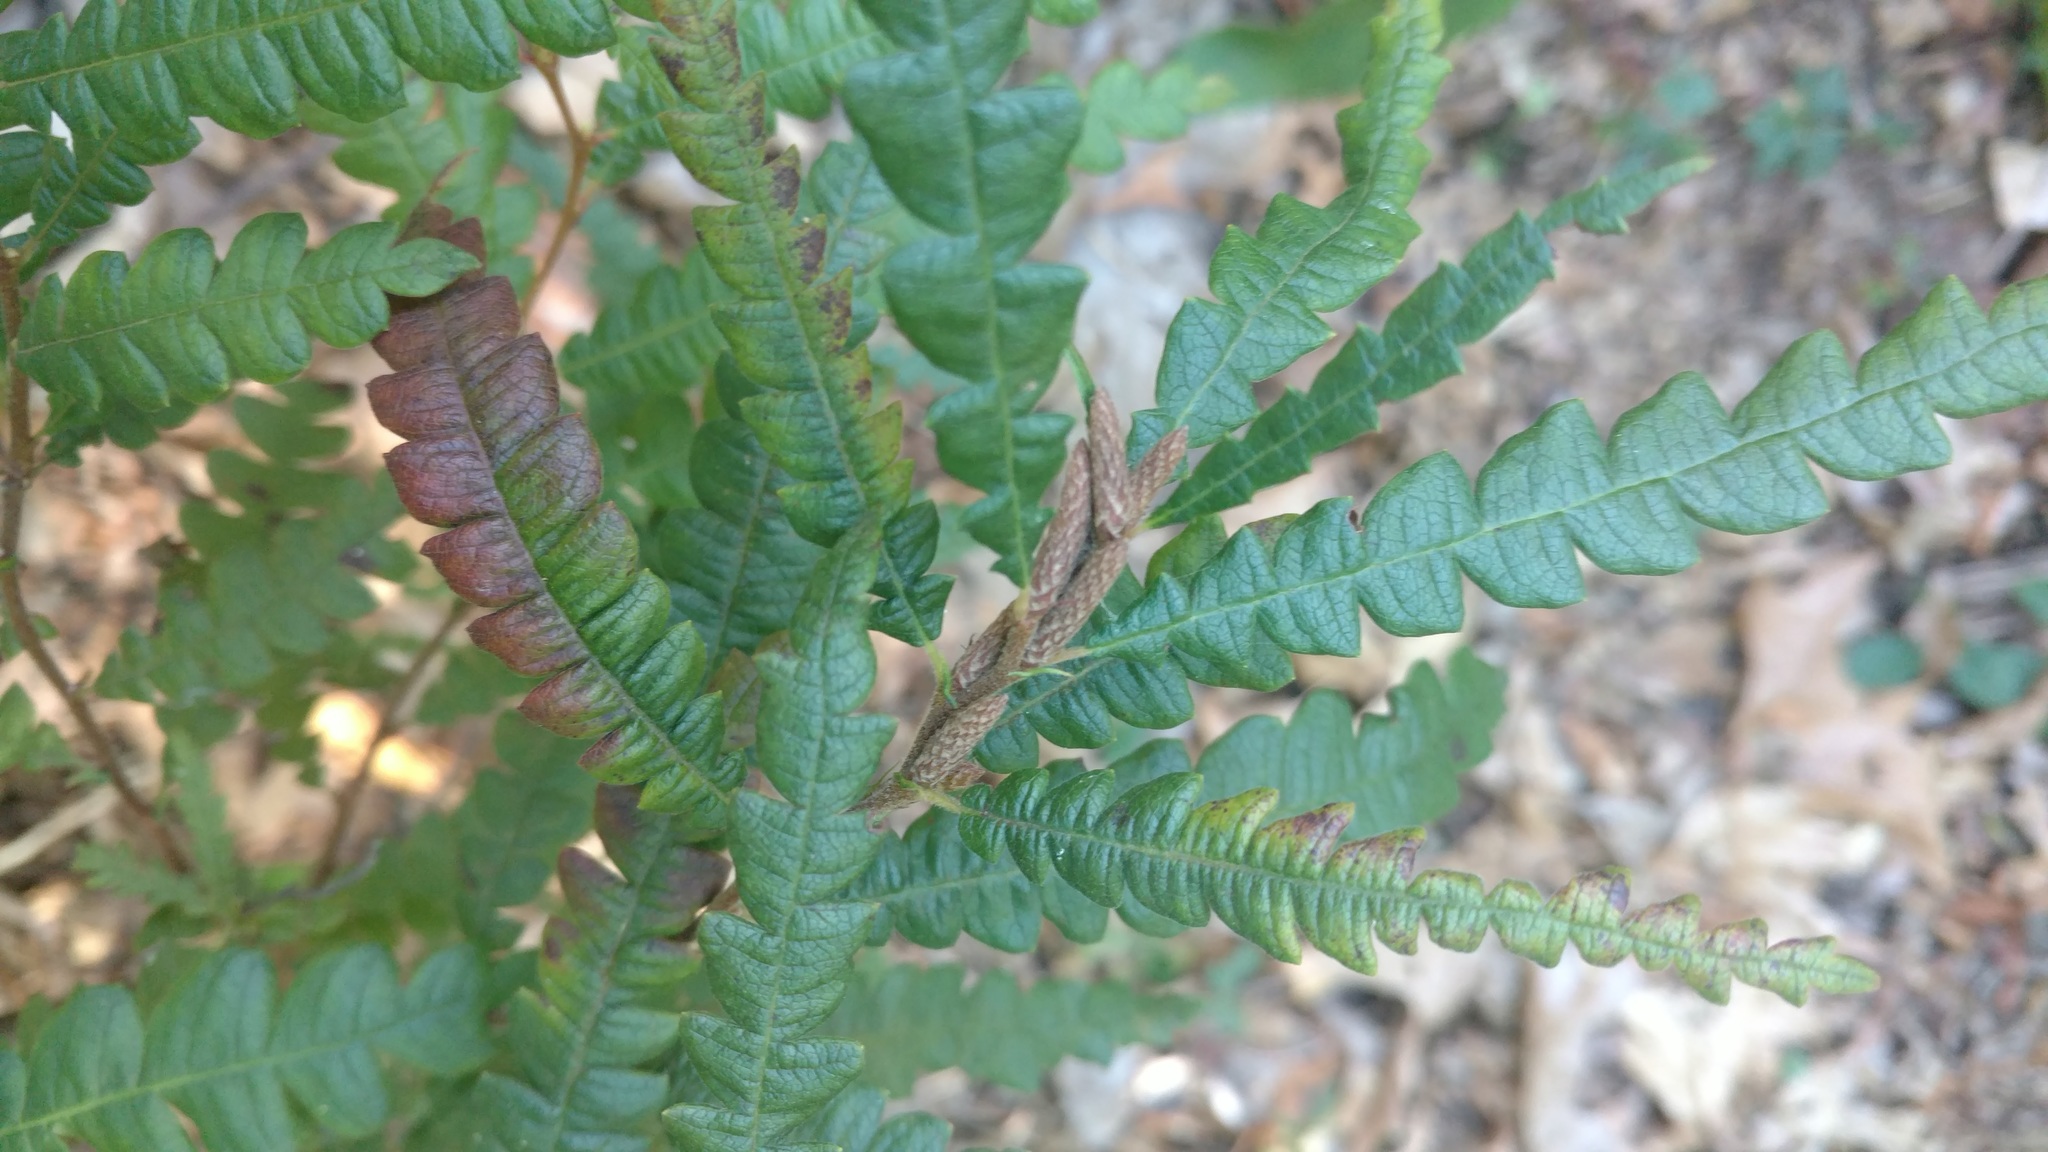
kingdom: Plantae
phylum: Tracheophyta
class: Magnoliopsida
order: Fagales
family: Myricaceae
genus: Comptonia
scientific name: Comptonia peregrina
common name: Sweet-fern
